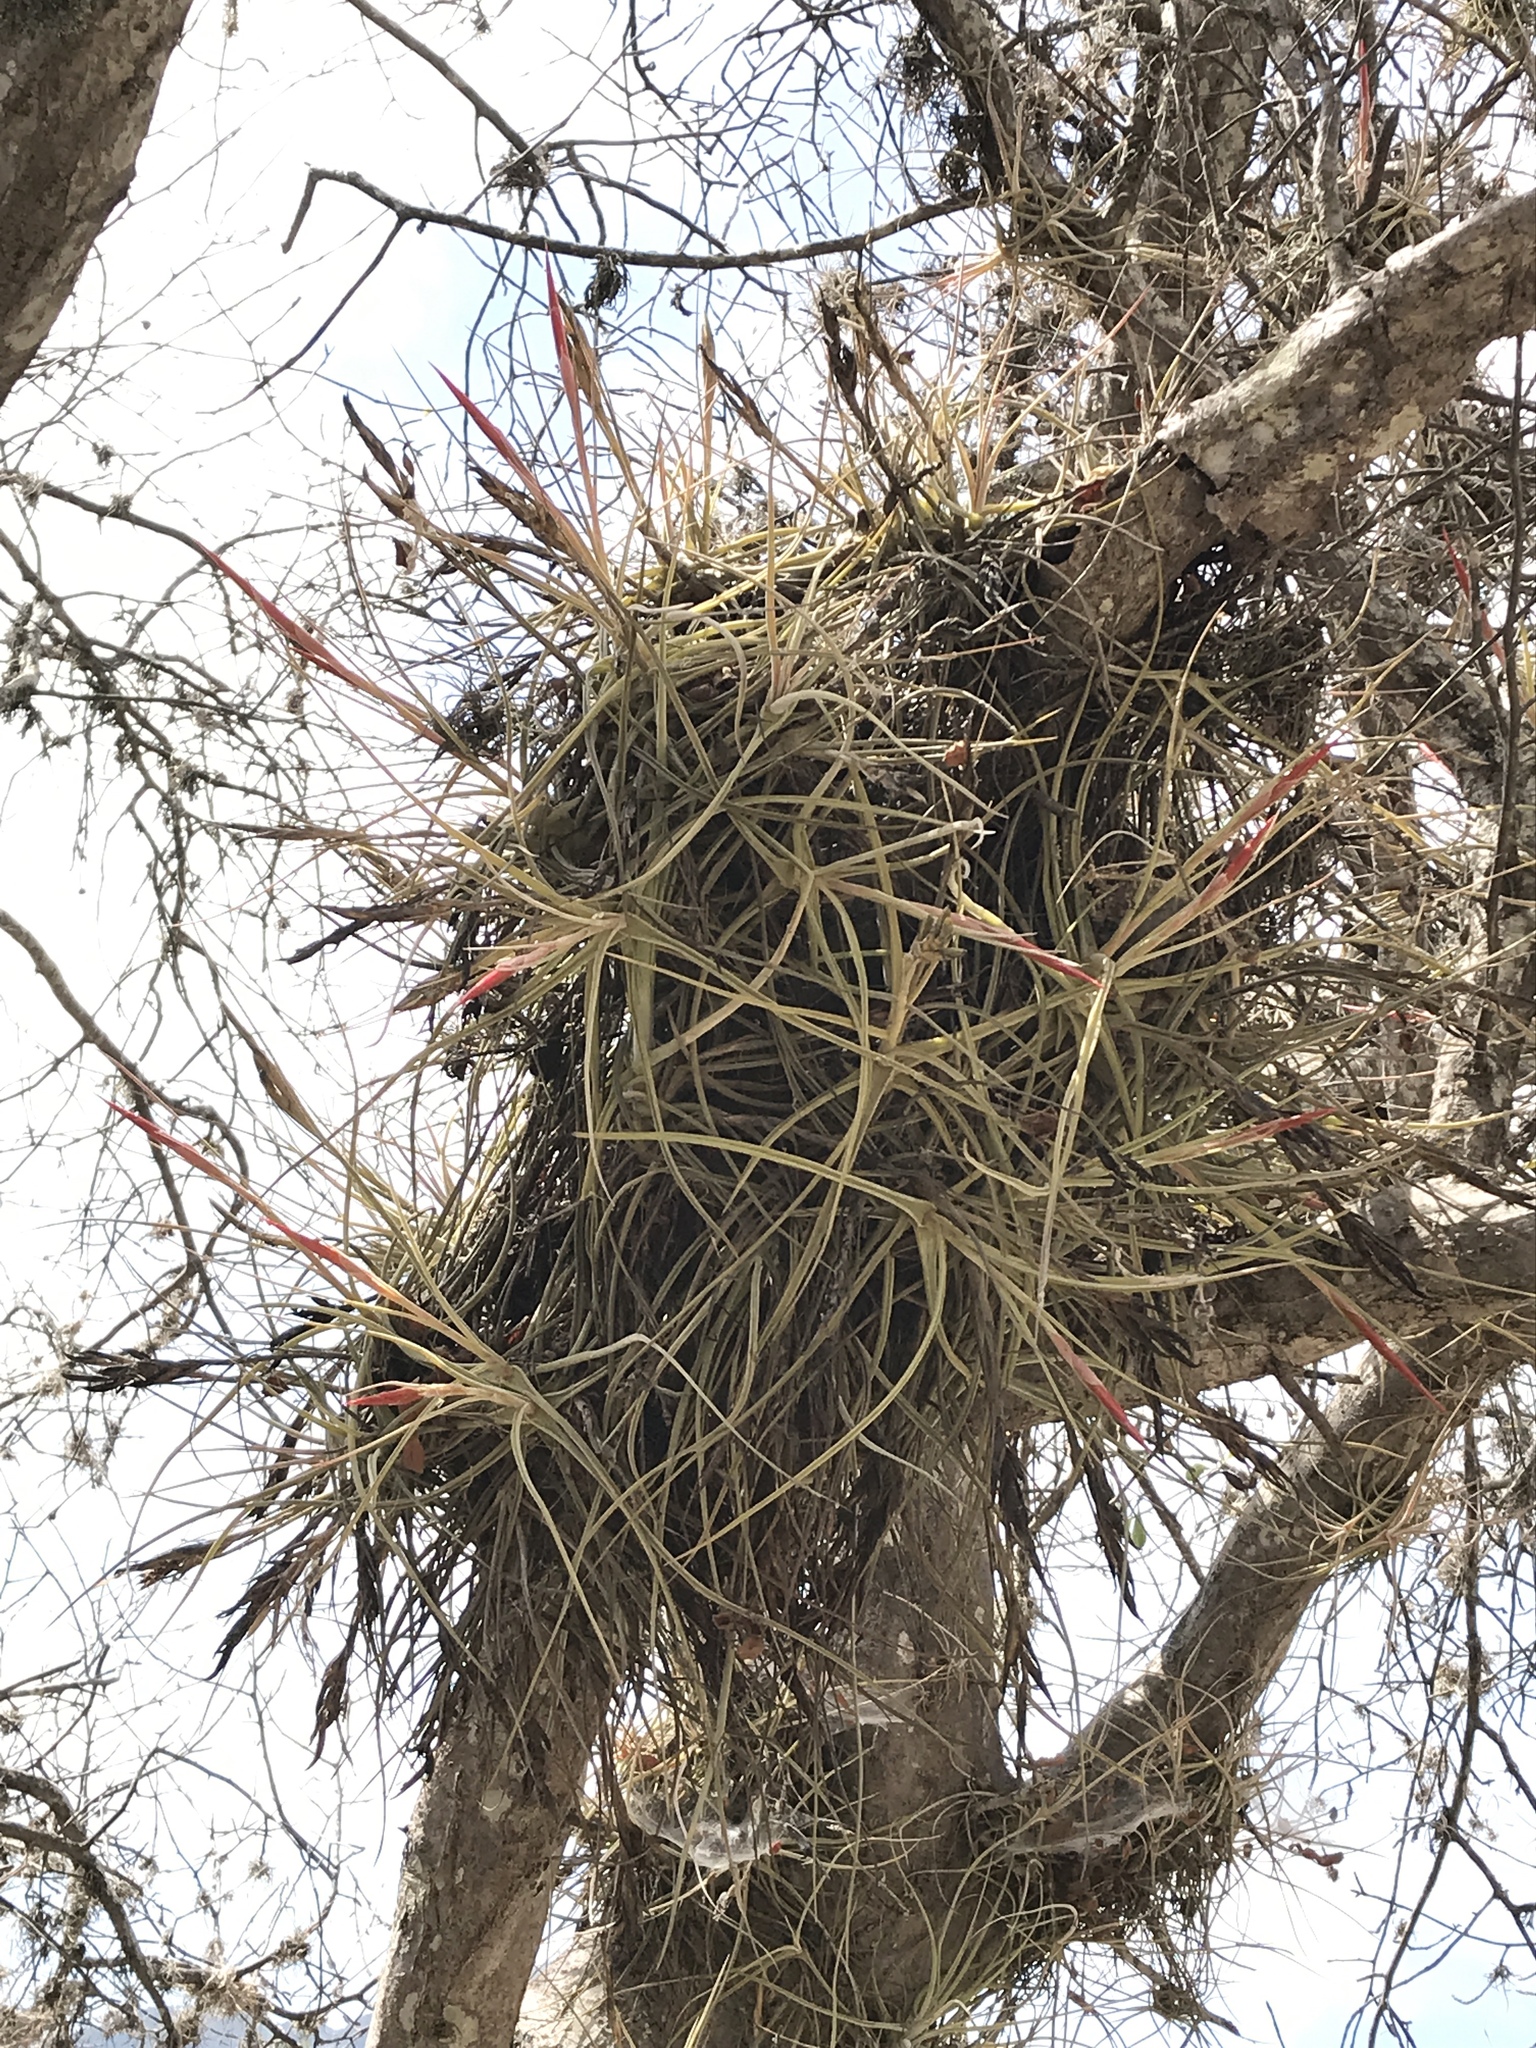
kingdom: Plantae
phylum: Tracheophyta
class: Liliopsida
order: Poales
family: Bromeliaceae
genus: Tillandsia
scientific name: Tillandsia schiedeana
